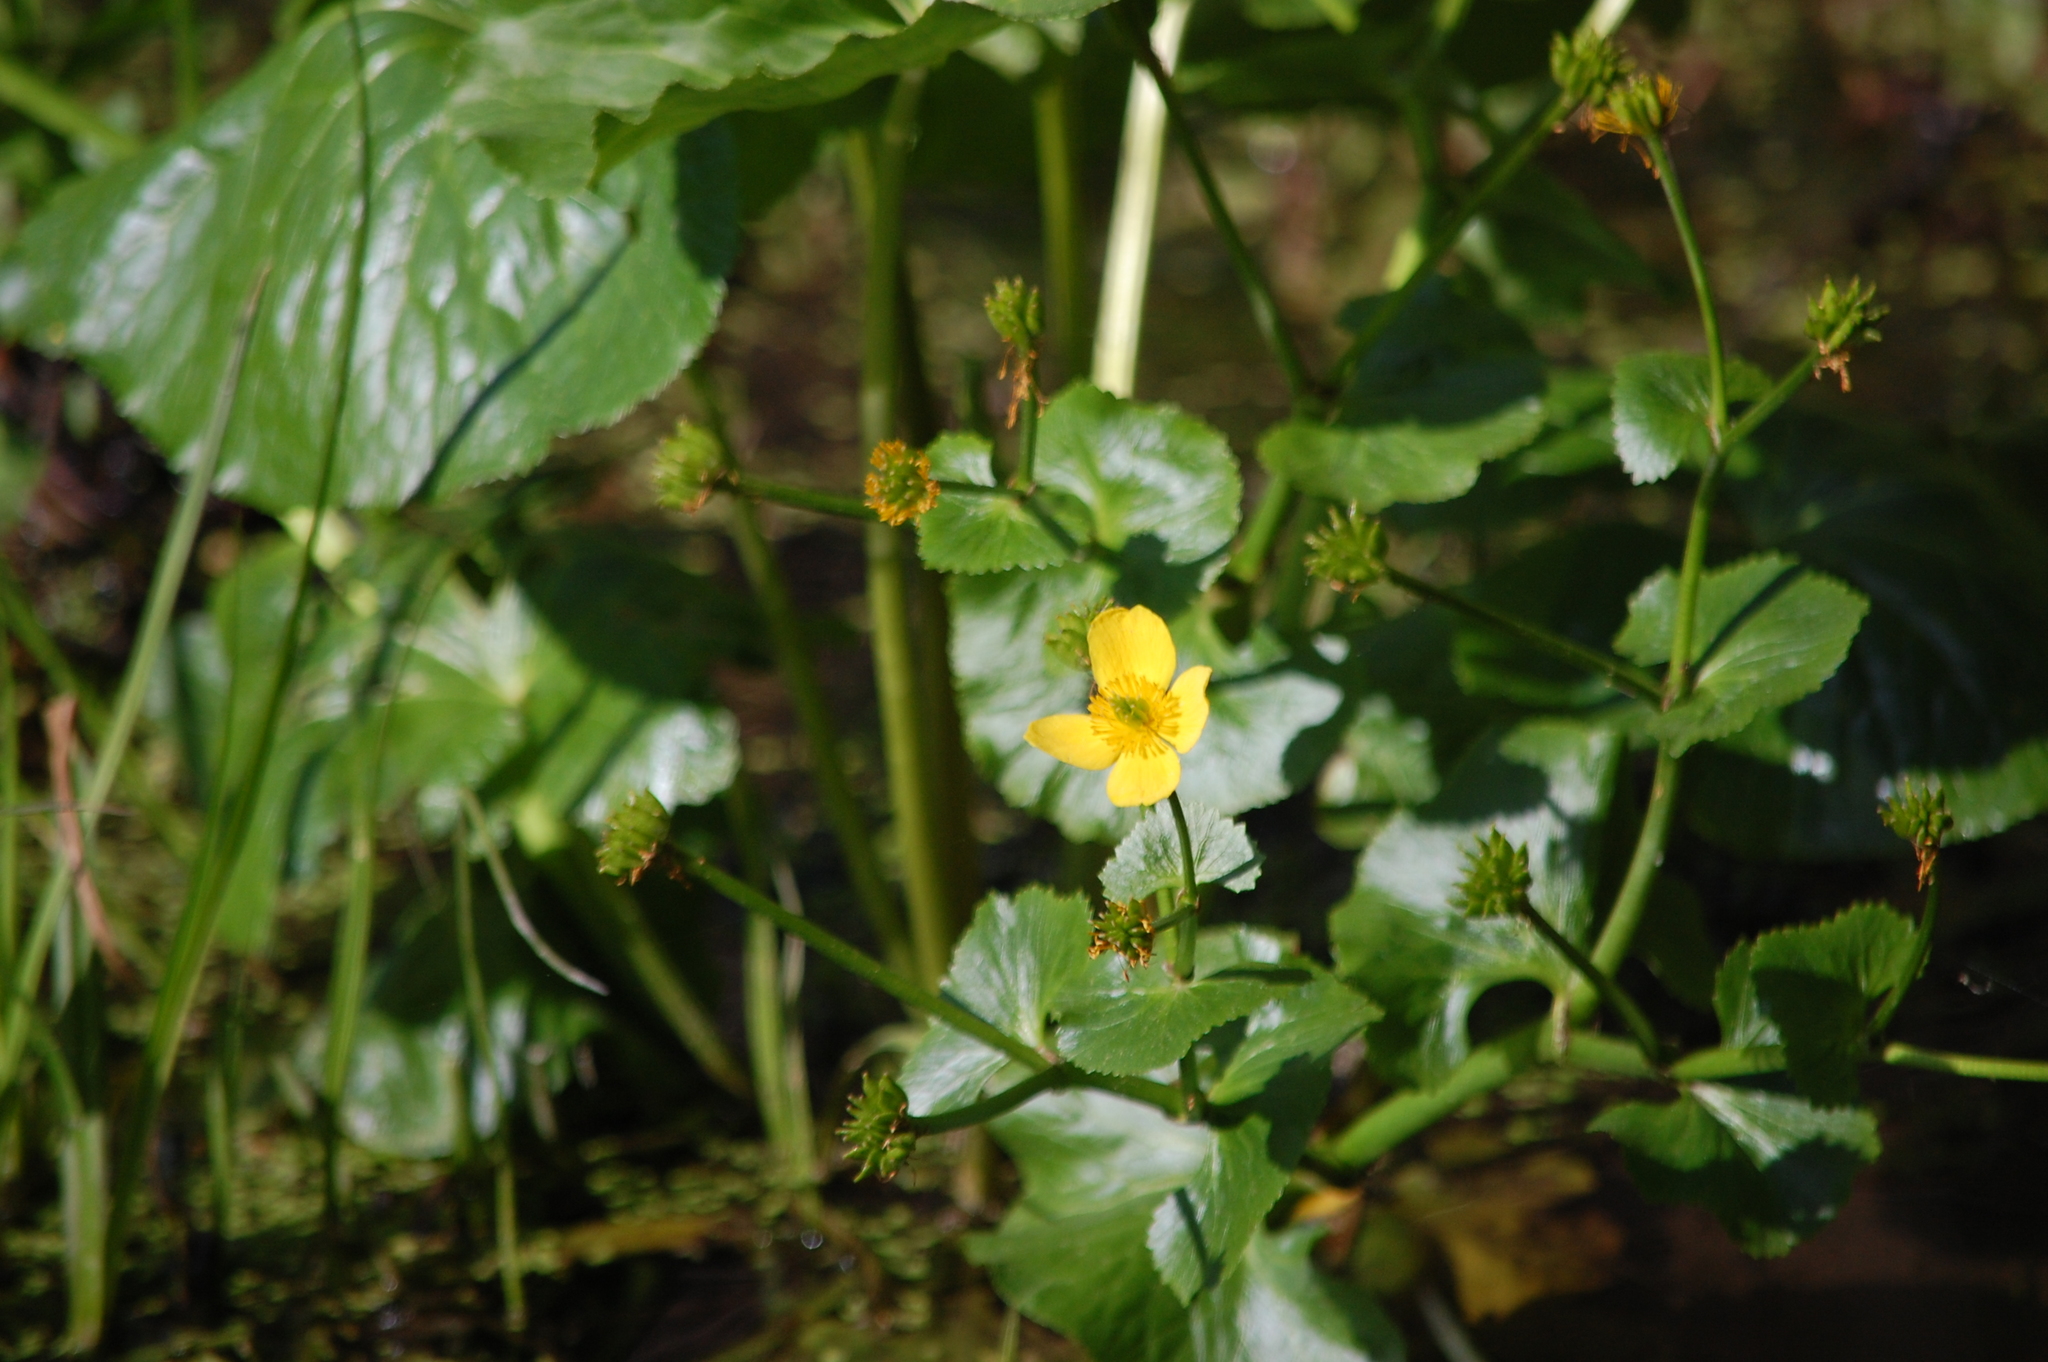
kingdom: Plantae
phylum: Tracheophyta
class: Magnoliopsida
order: Ranunculales
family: Ranunculaceae
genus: Caltha
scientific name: Caltha palustris
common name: Marsh marigold
